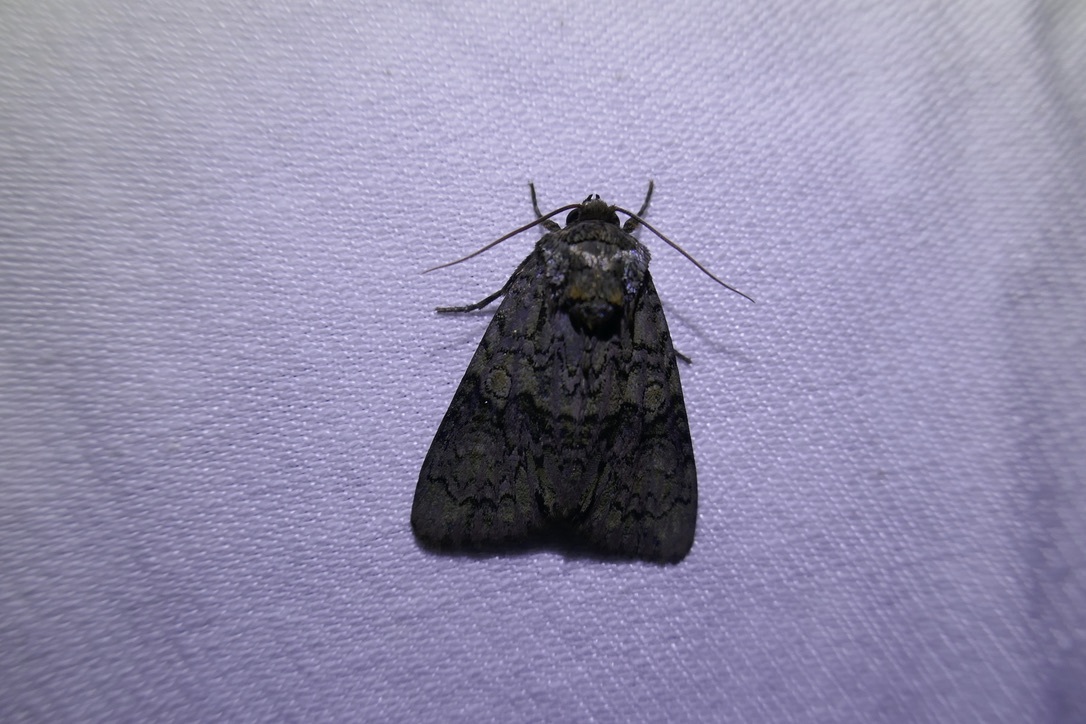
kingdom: Animalia
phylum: Arthropoda
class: Insecta
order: Lepidoptera
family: Noctuidae
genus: Craniophora
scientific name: Craniophora ligustri
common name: Coronet
